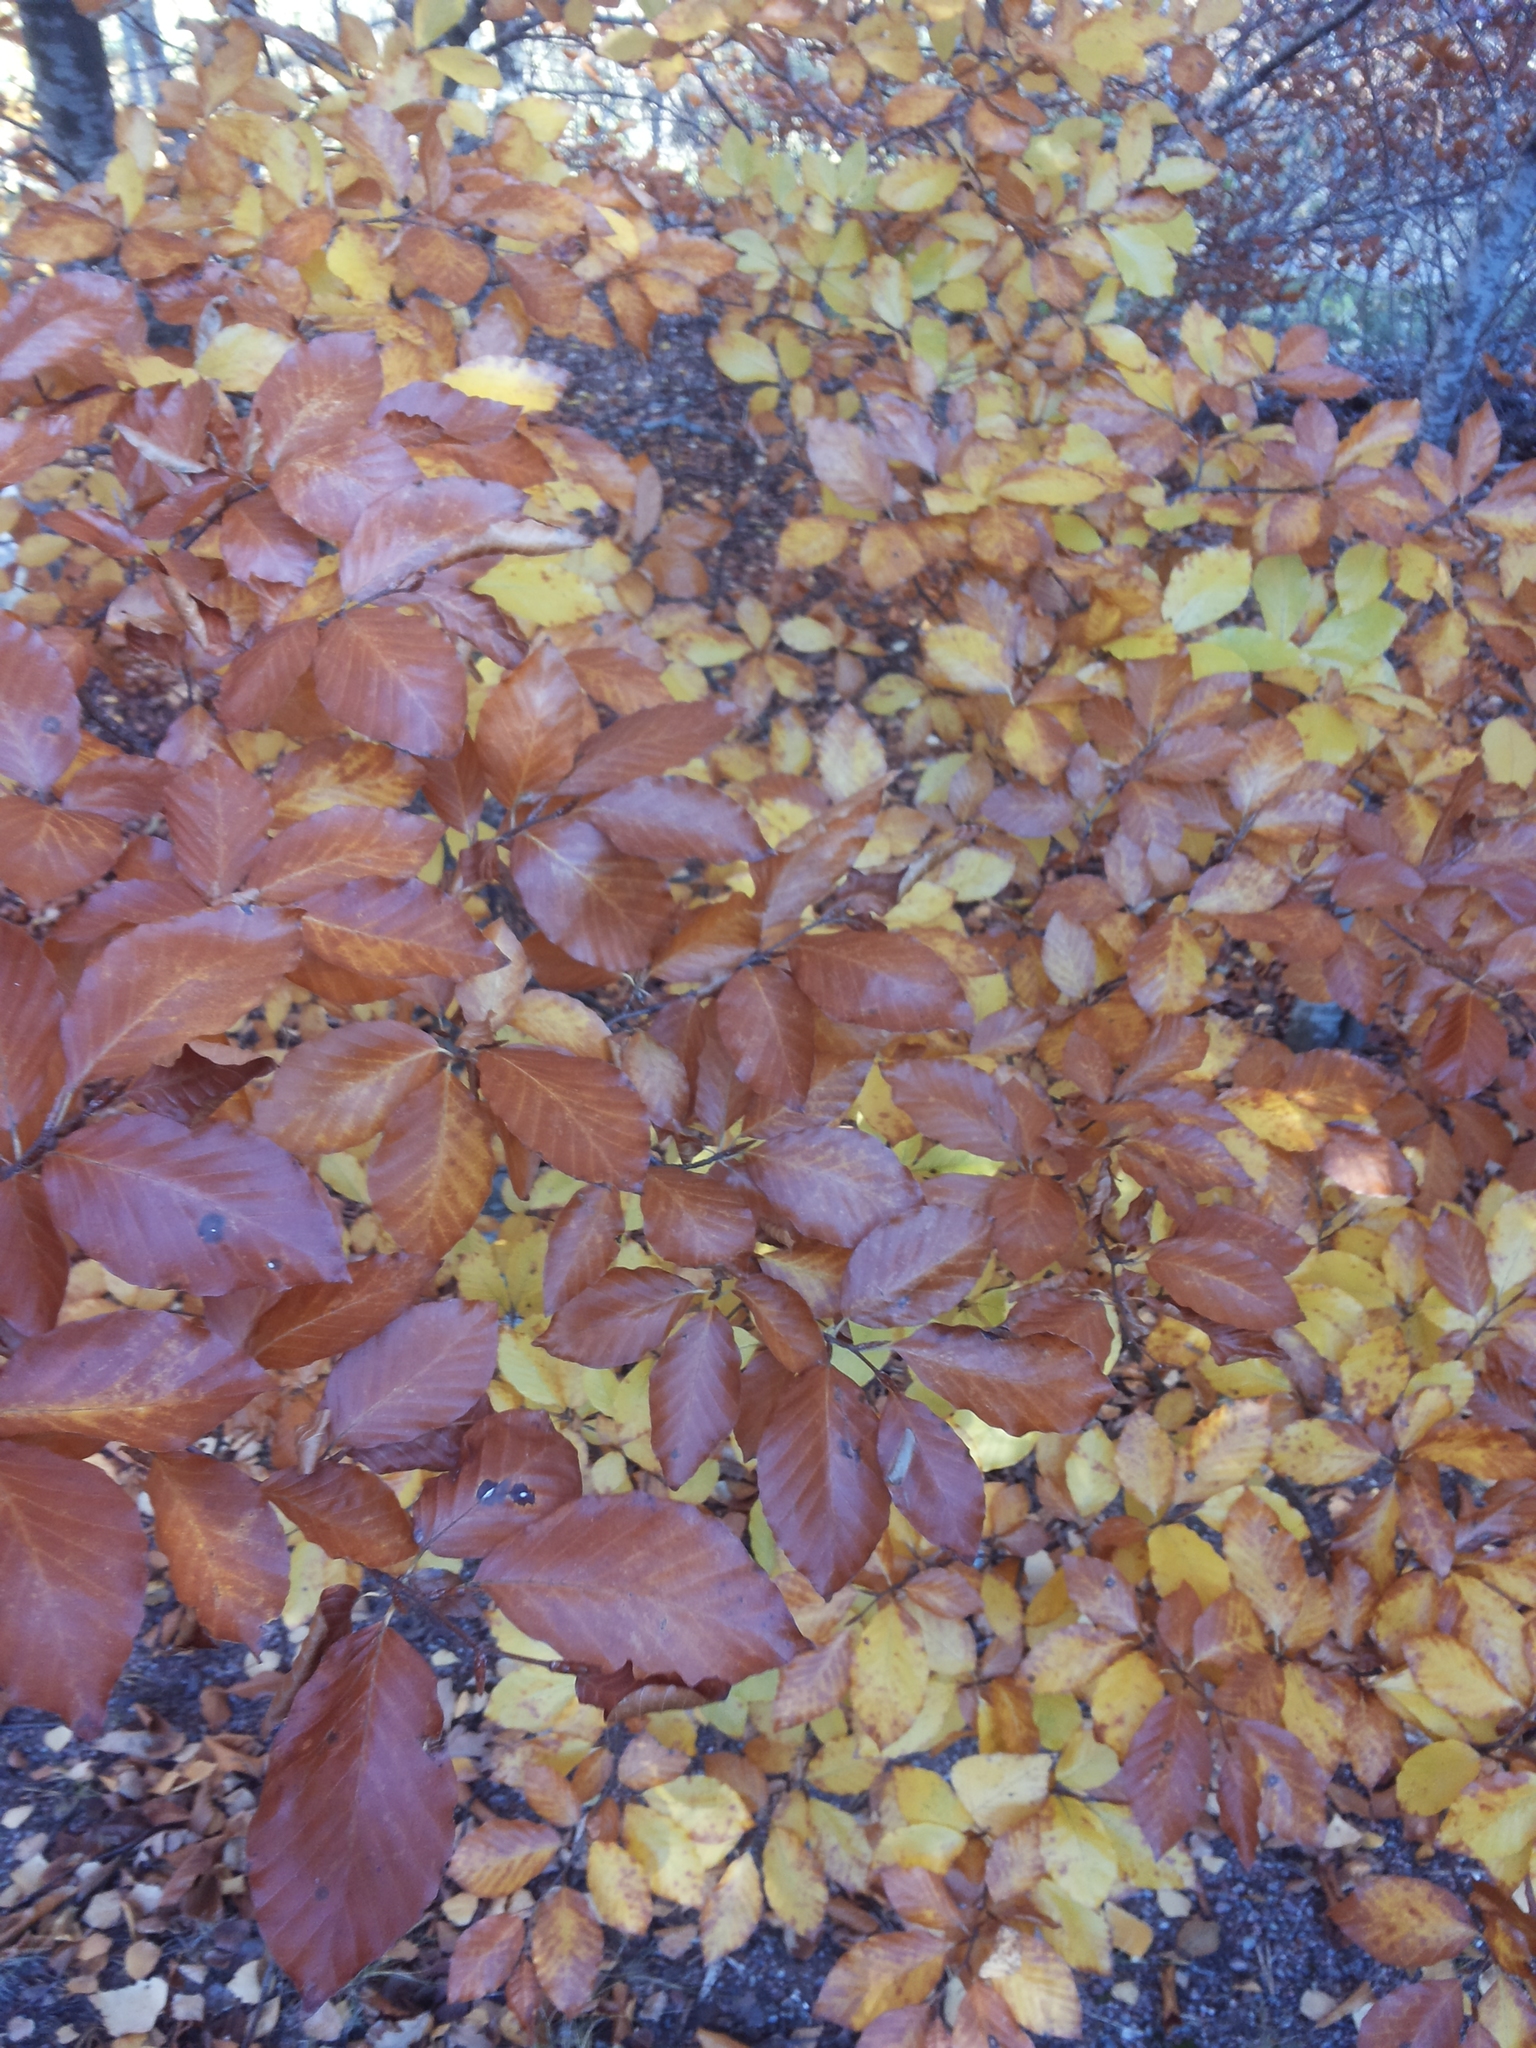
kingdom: Plantae
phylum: Tracheophyta
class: Magnoliopsida
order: Fagales
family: Fagaceae
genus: Fagus
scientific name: Fagus sylvatica
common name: Beech
